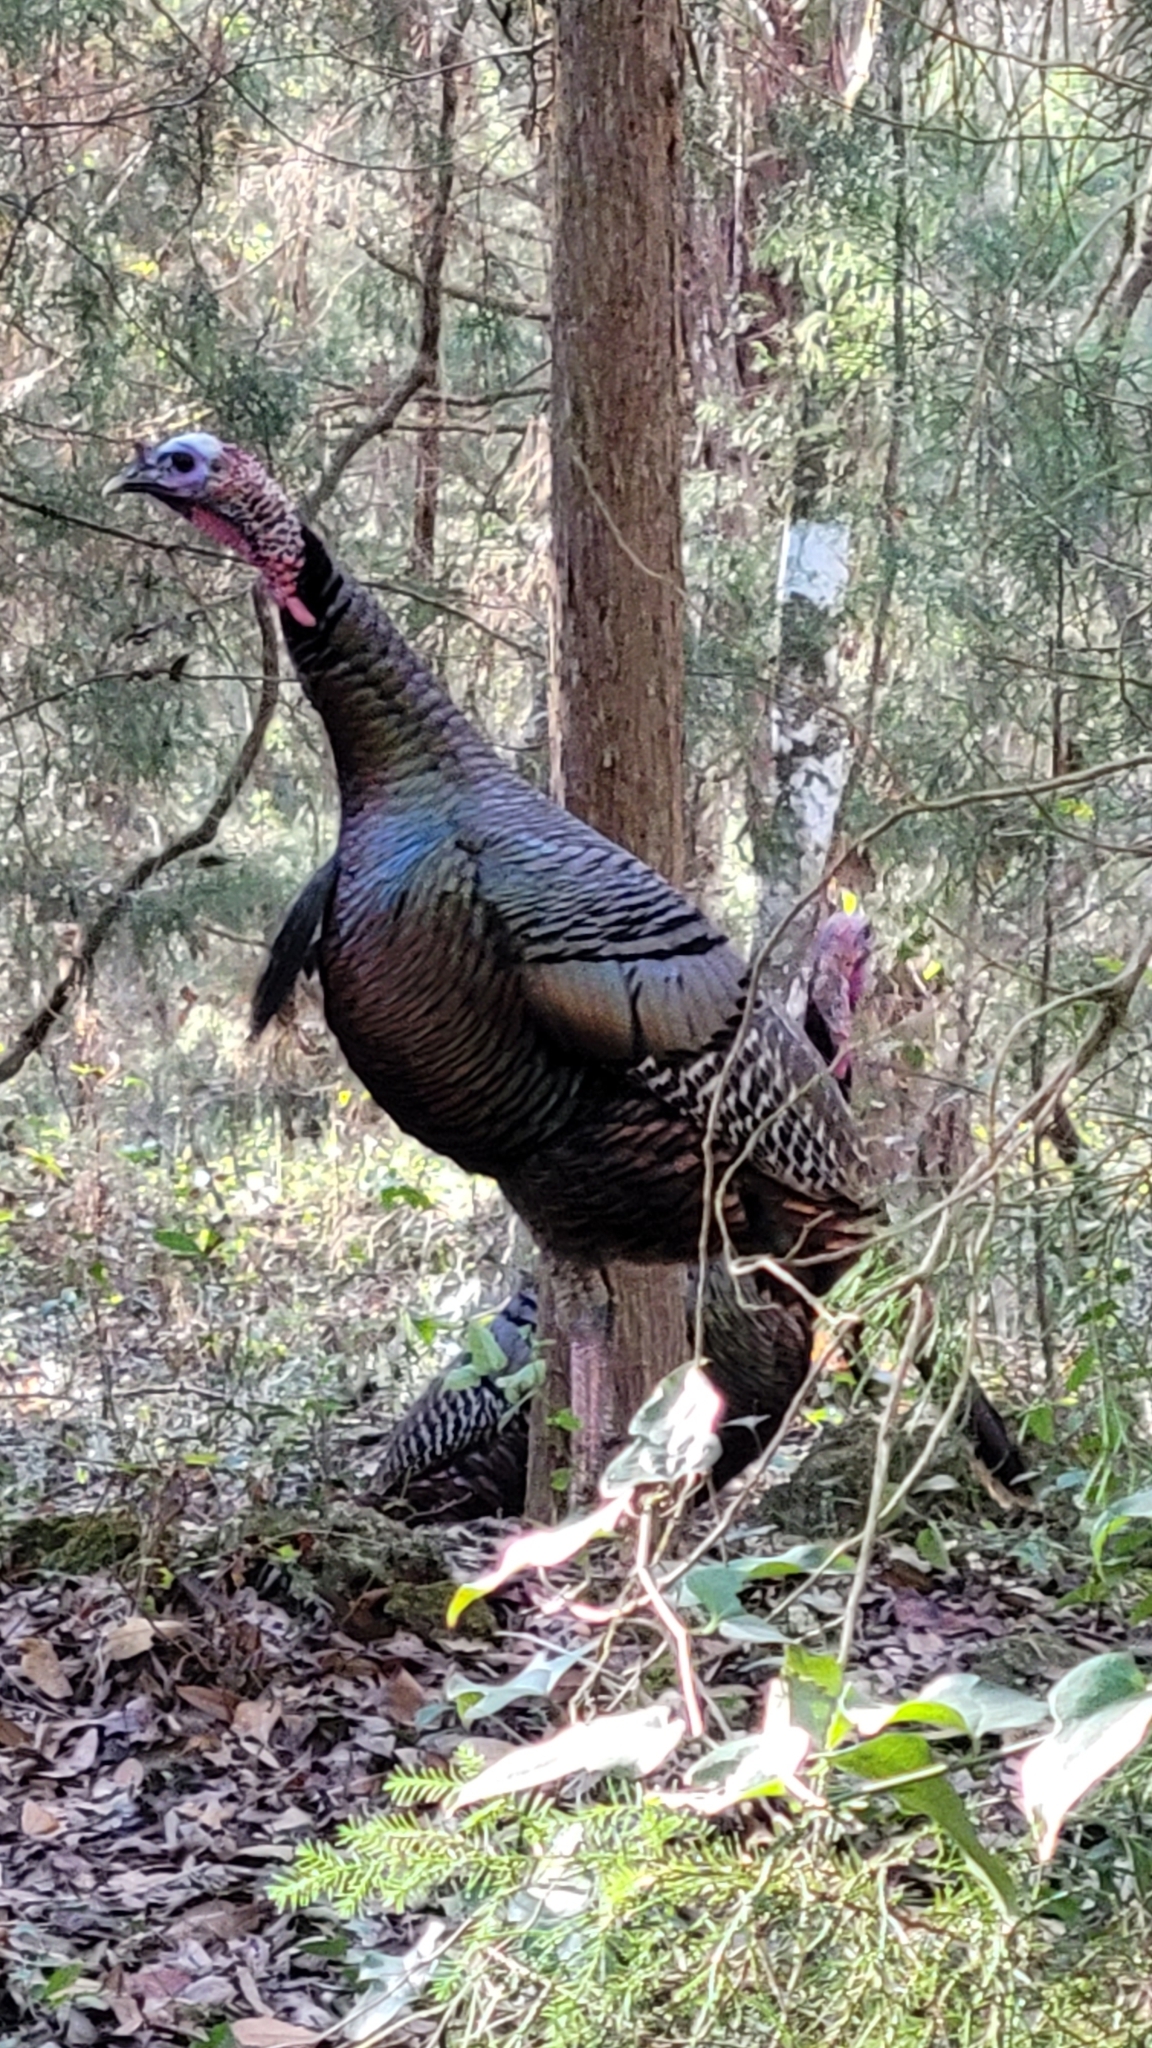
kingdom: Animalia
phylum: Chordata
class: Aves
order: Galliformes
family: Phasianidae
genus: Meleagris
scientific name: Meleagris gallopavo
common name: Wild turkey
